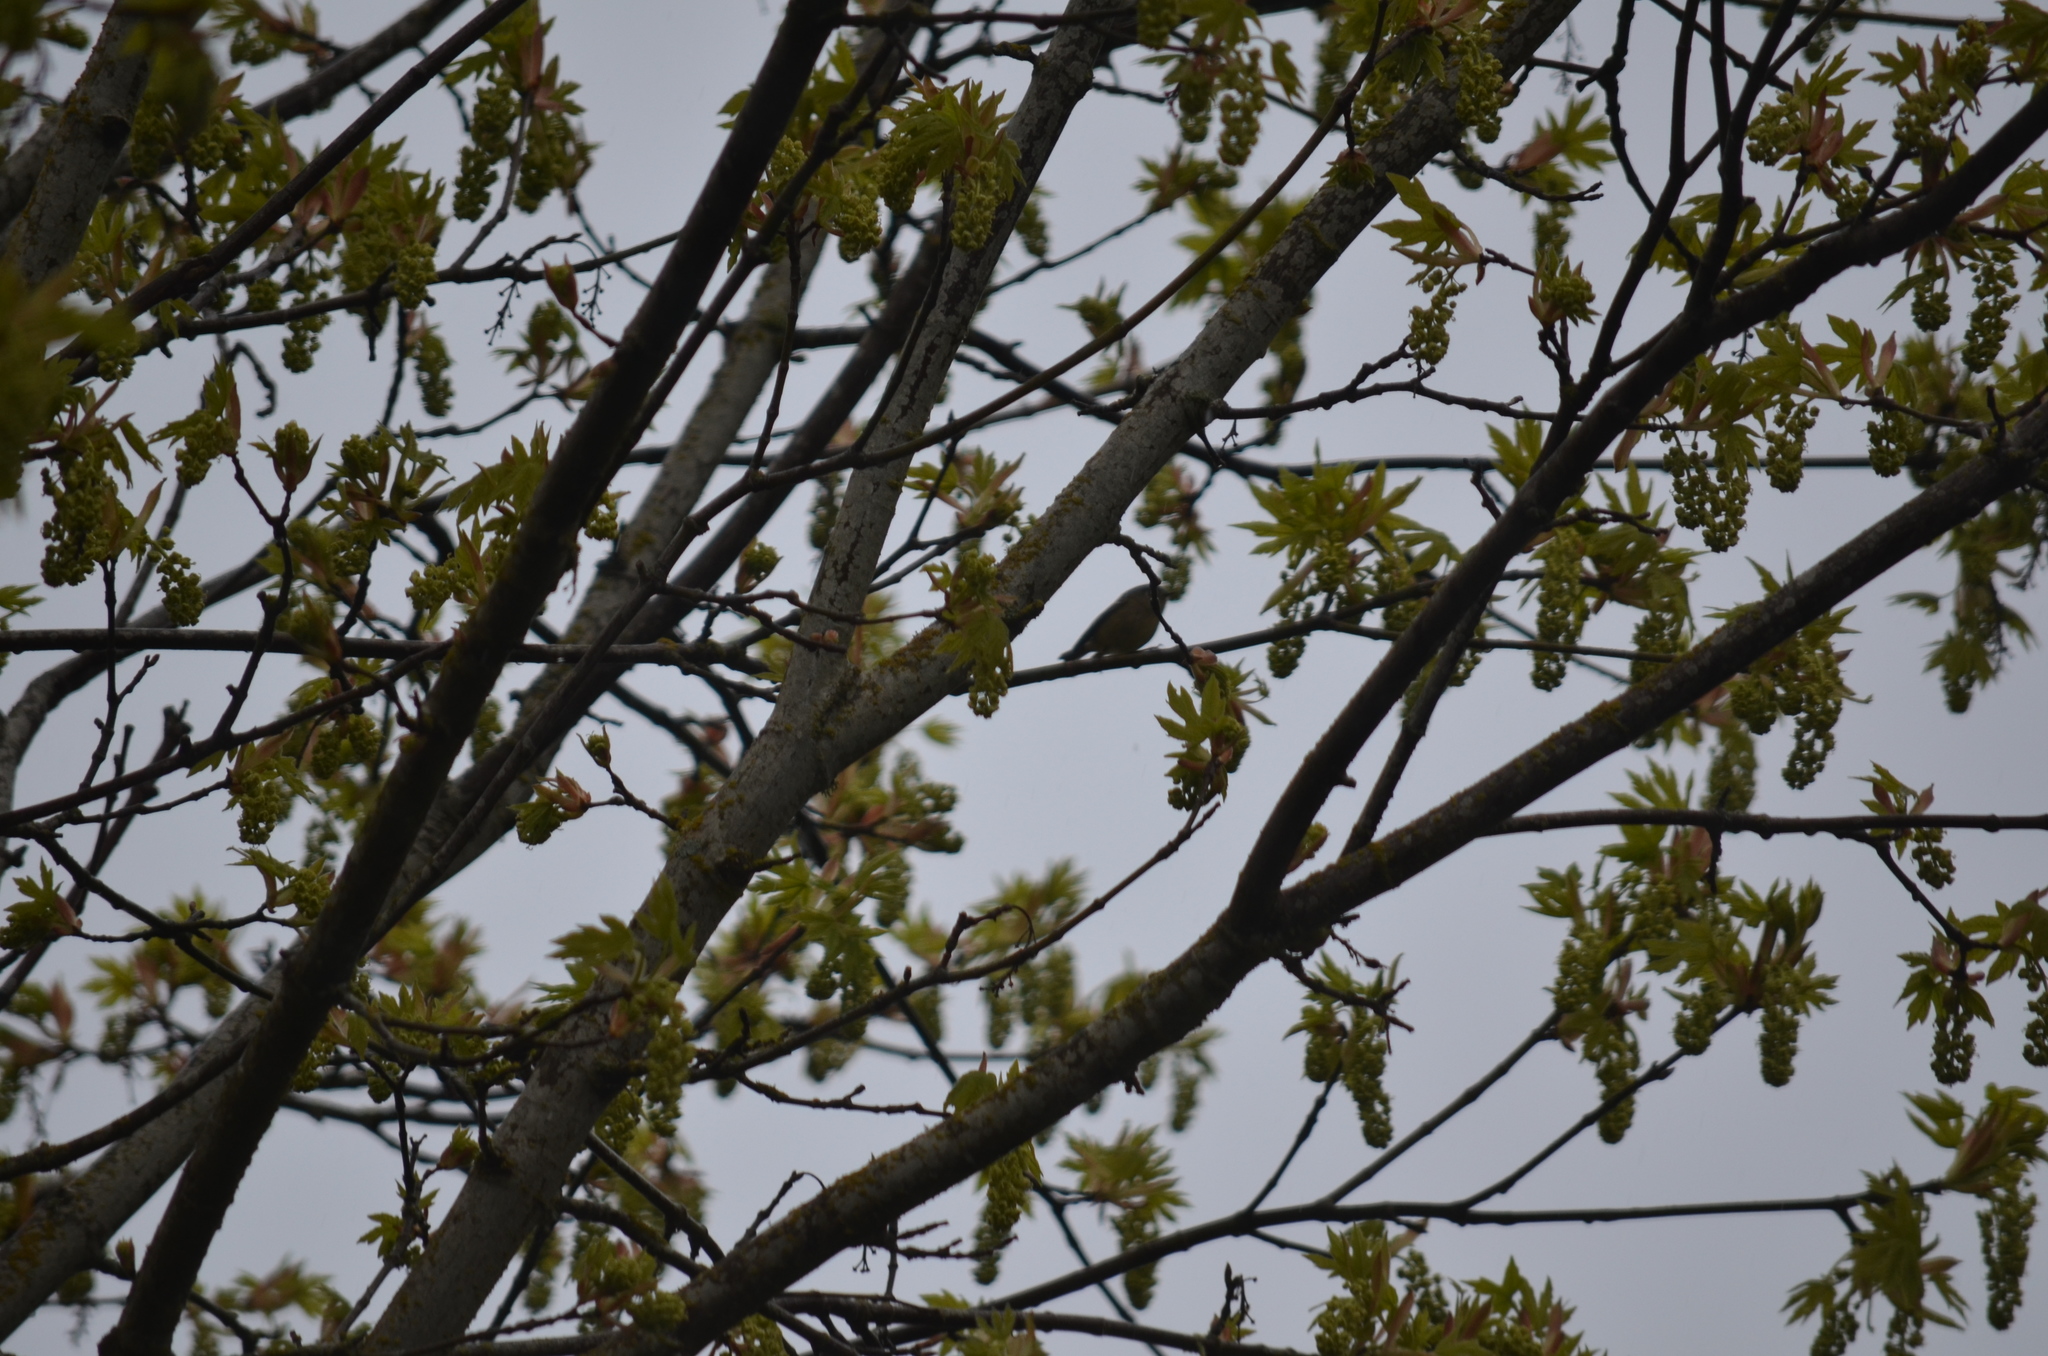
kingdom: Animalia
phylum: Chordata
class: Aves
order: Passeriformes
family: Regulidae
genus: Regulus
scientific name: Regulus calendula
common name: Ruby-crowned kinglet
